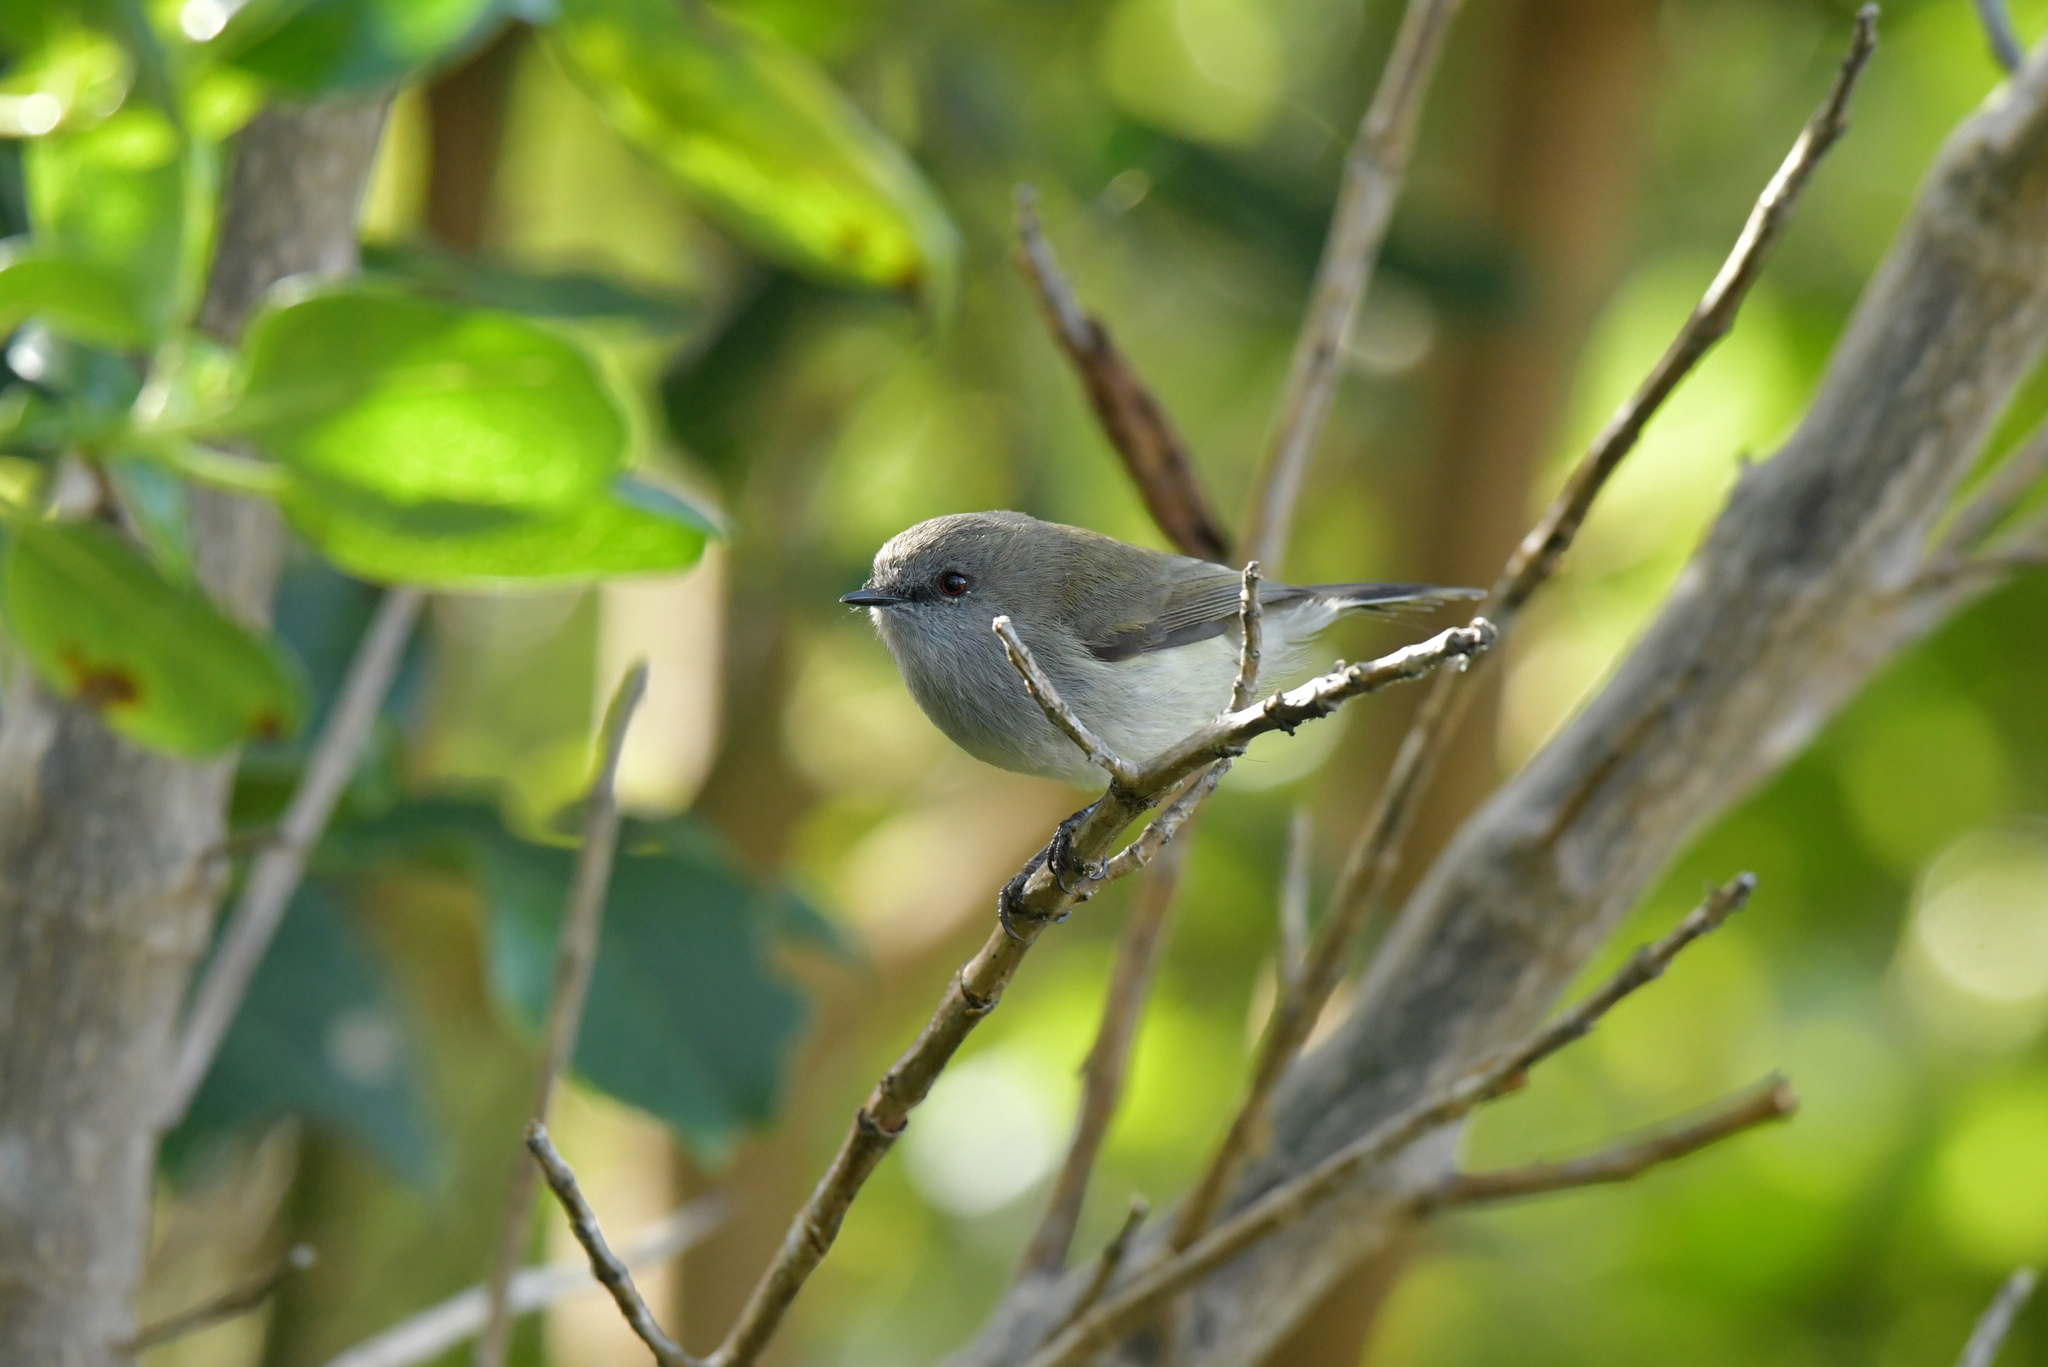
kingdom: Animalia
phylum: Chordata
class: Aves
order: Passeriformes
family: Acanthizidae
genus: Gerygone
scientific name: Gerygone igata
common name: Grey gerygone
